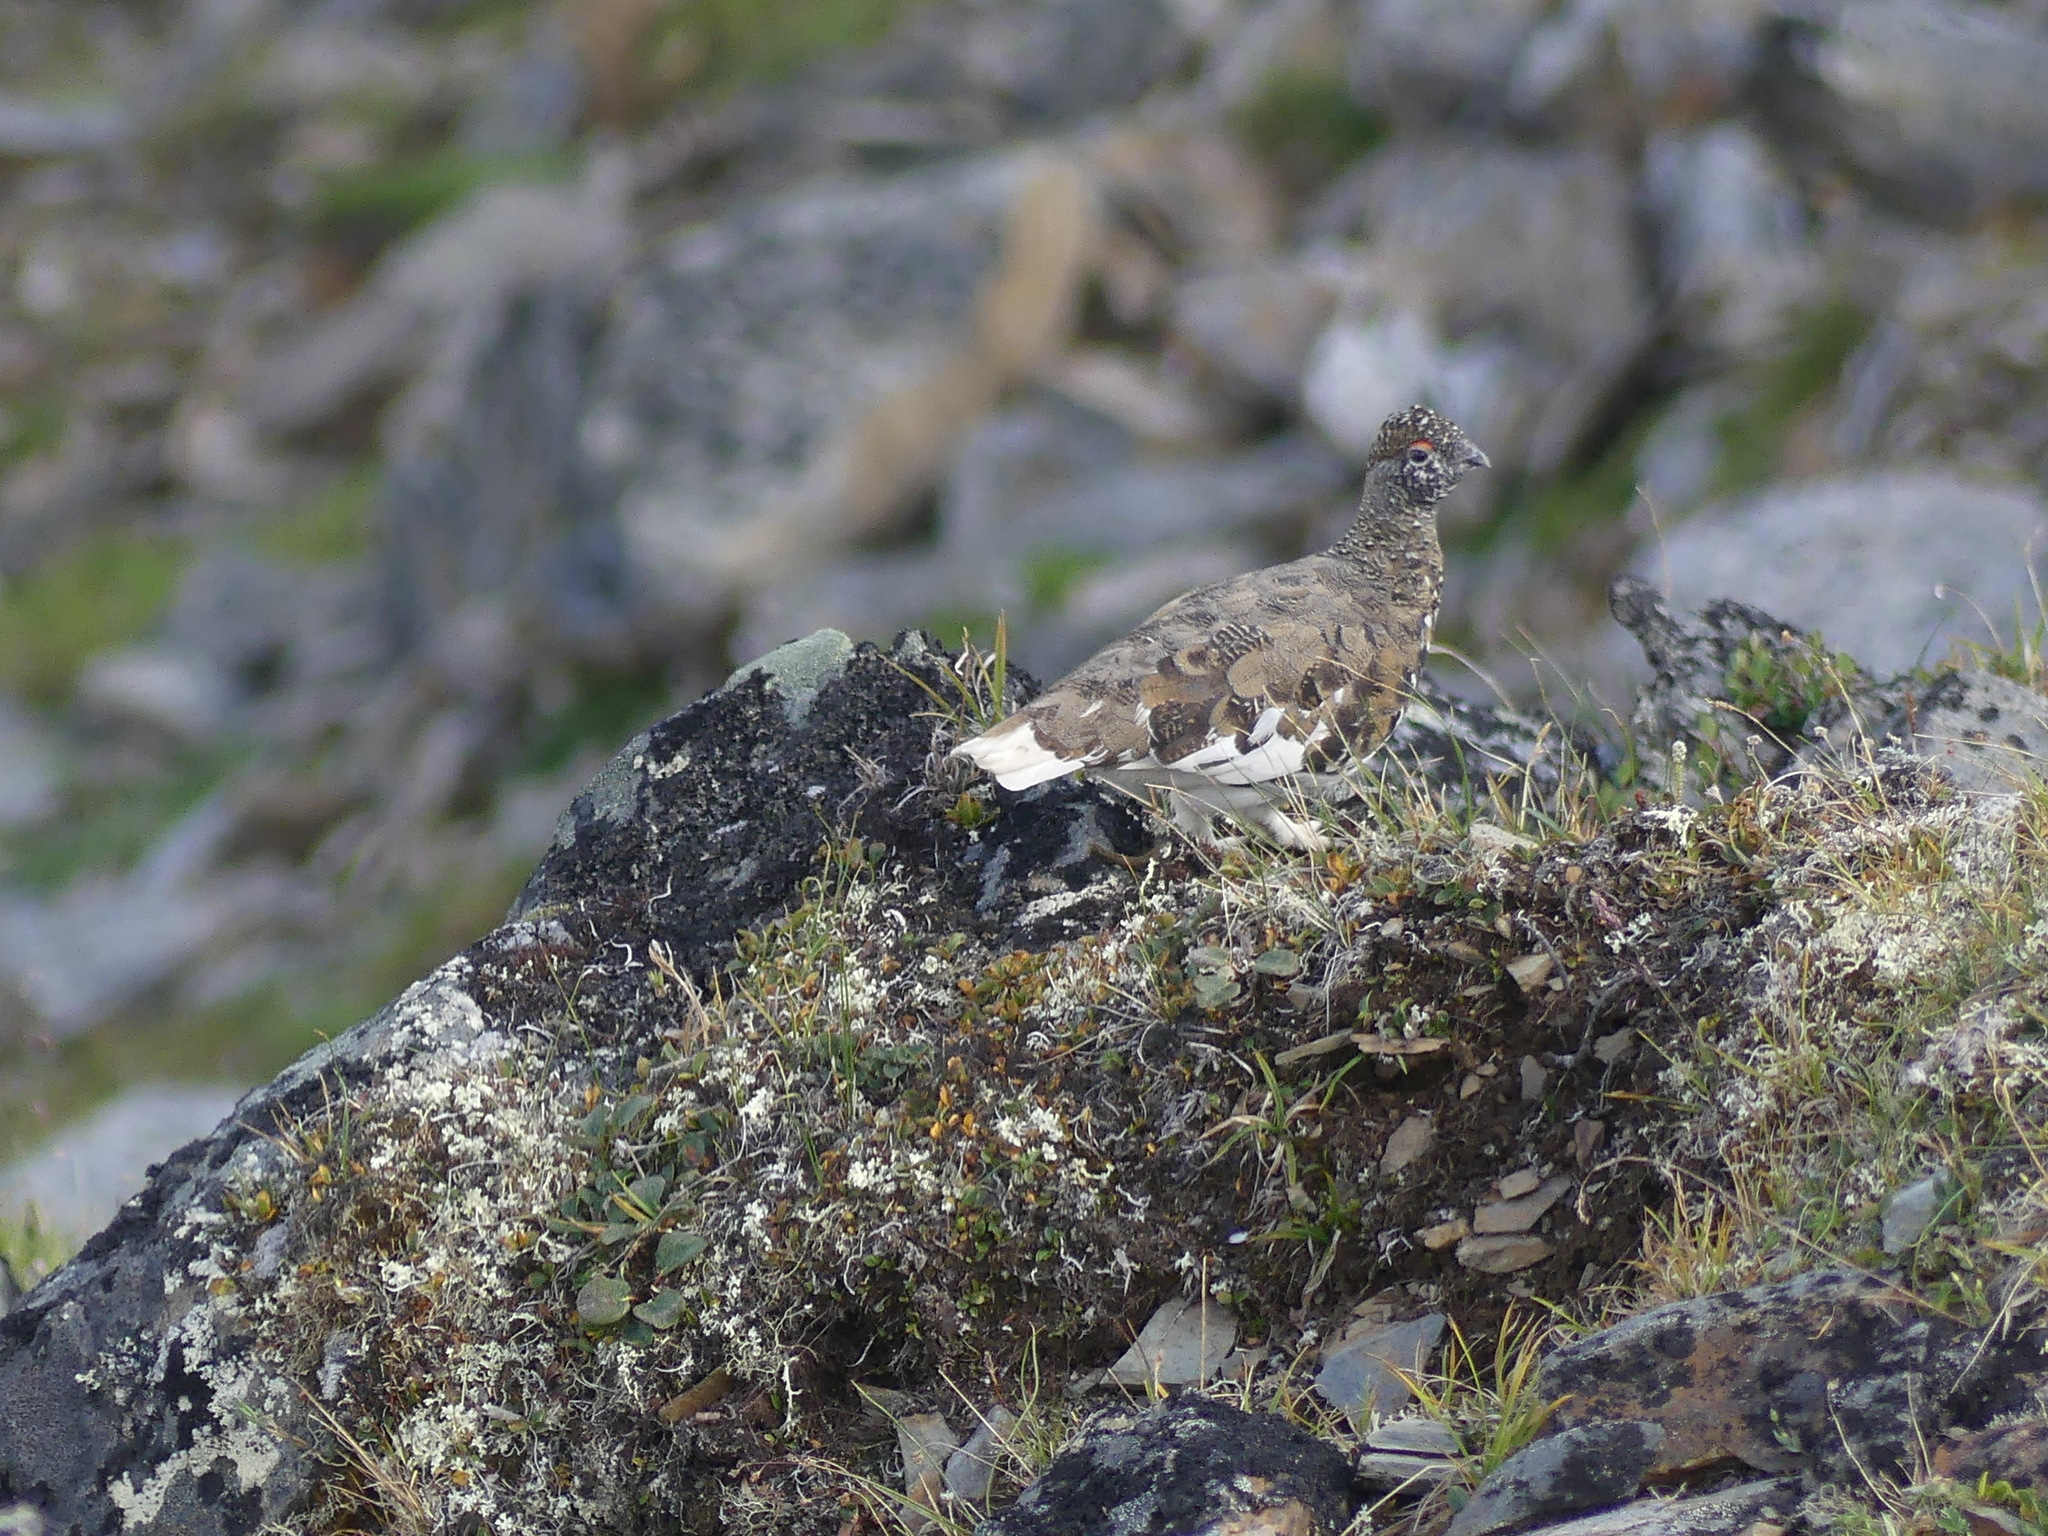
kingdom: Animalia
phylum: Chordata
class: Aves
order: Galliformes
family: Phasianidae
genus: Lagopus
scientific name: Lagopus leucura
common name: White-tailed ptarmigan
